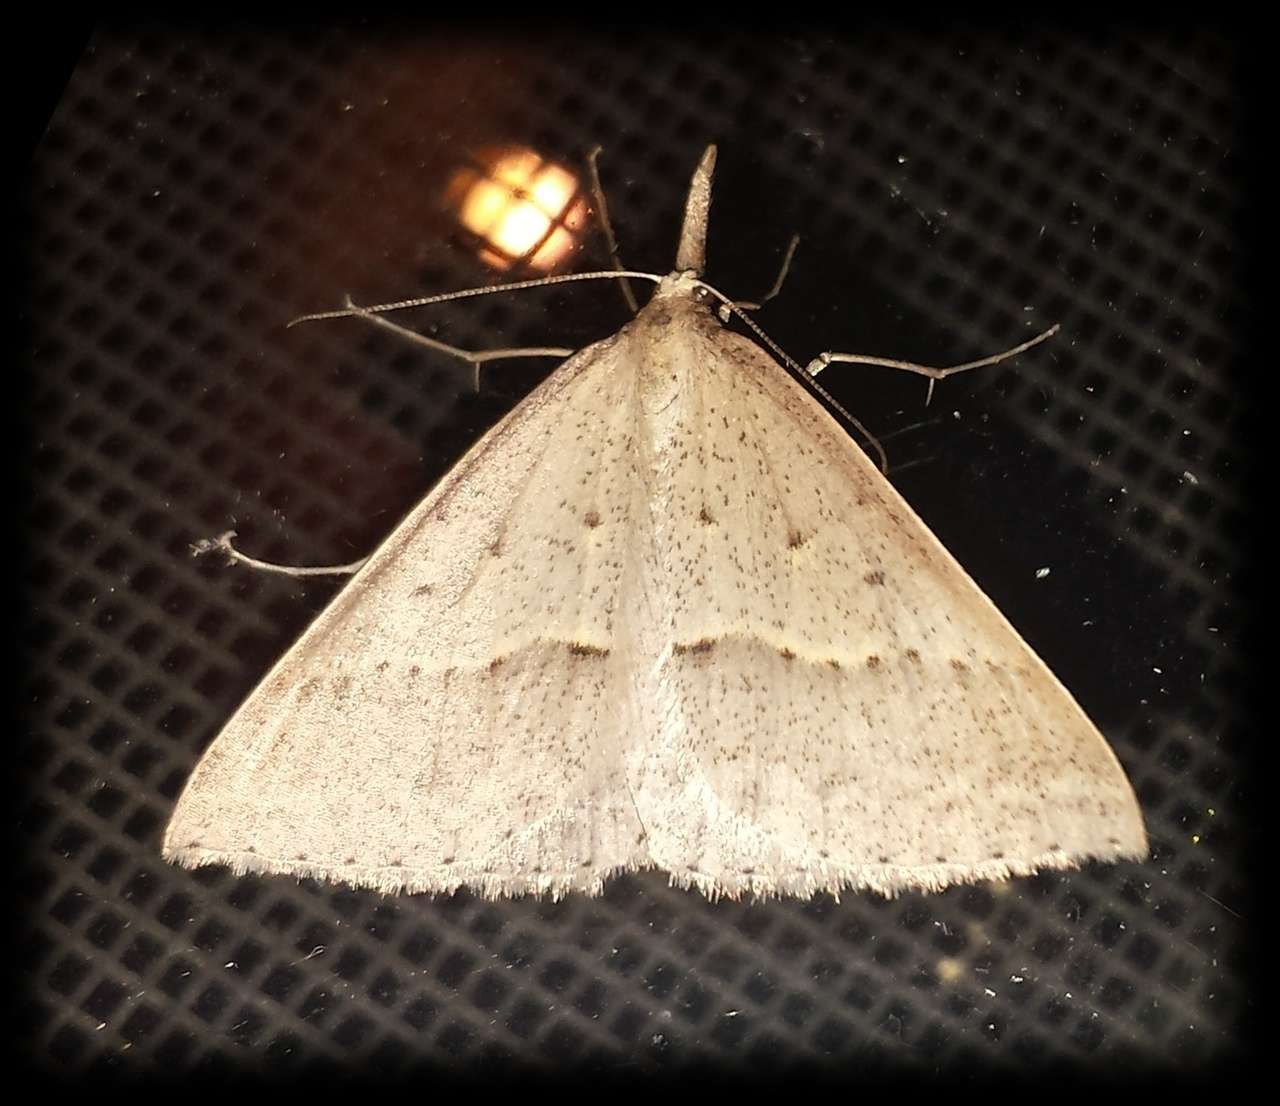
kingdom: Animalia
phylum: Arthropoda
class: Insecta
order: Lepidoptera
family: Geometridae
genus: Epidesmia
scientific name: Epidesmia hypenaria
